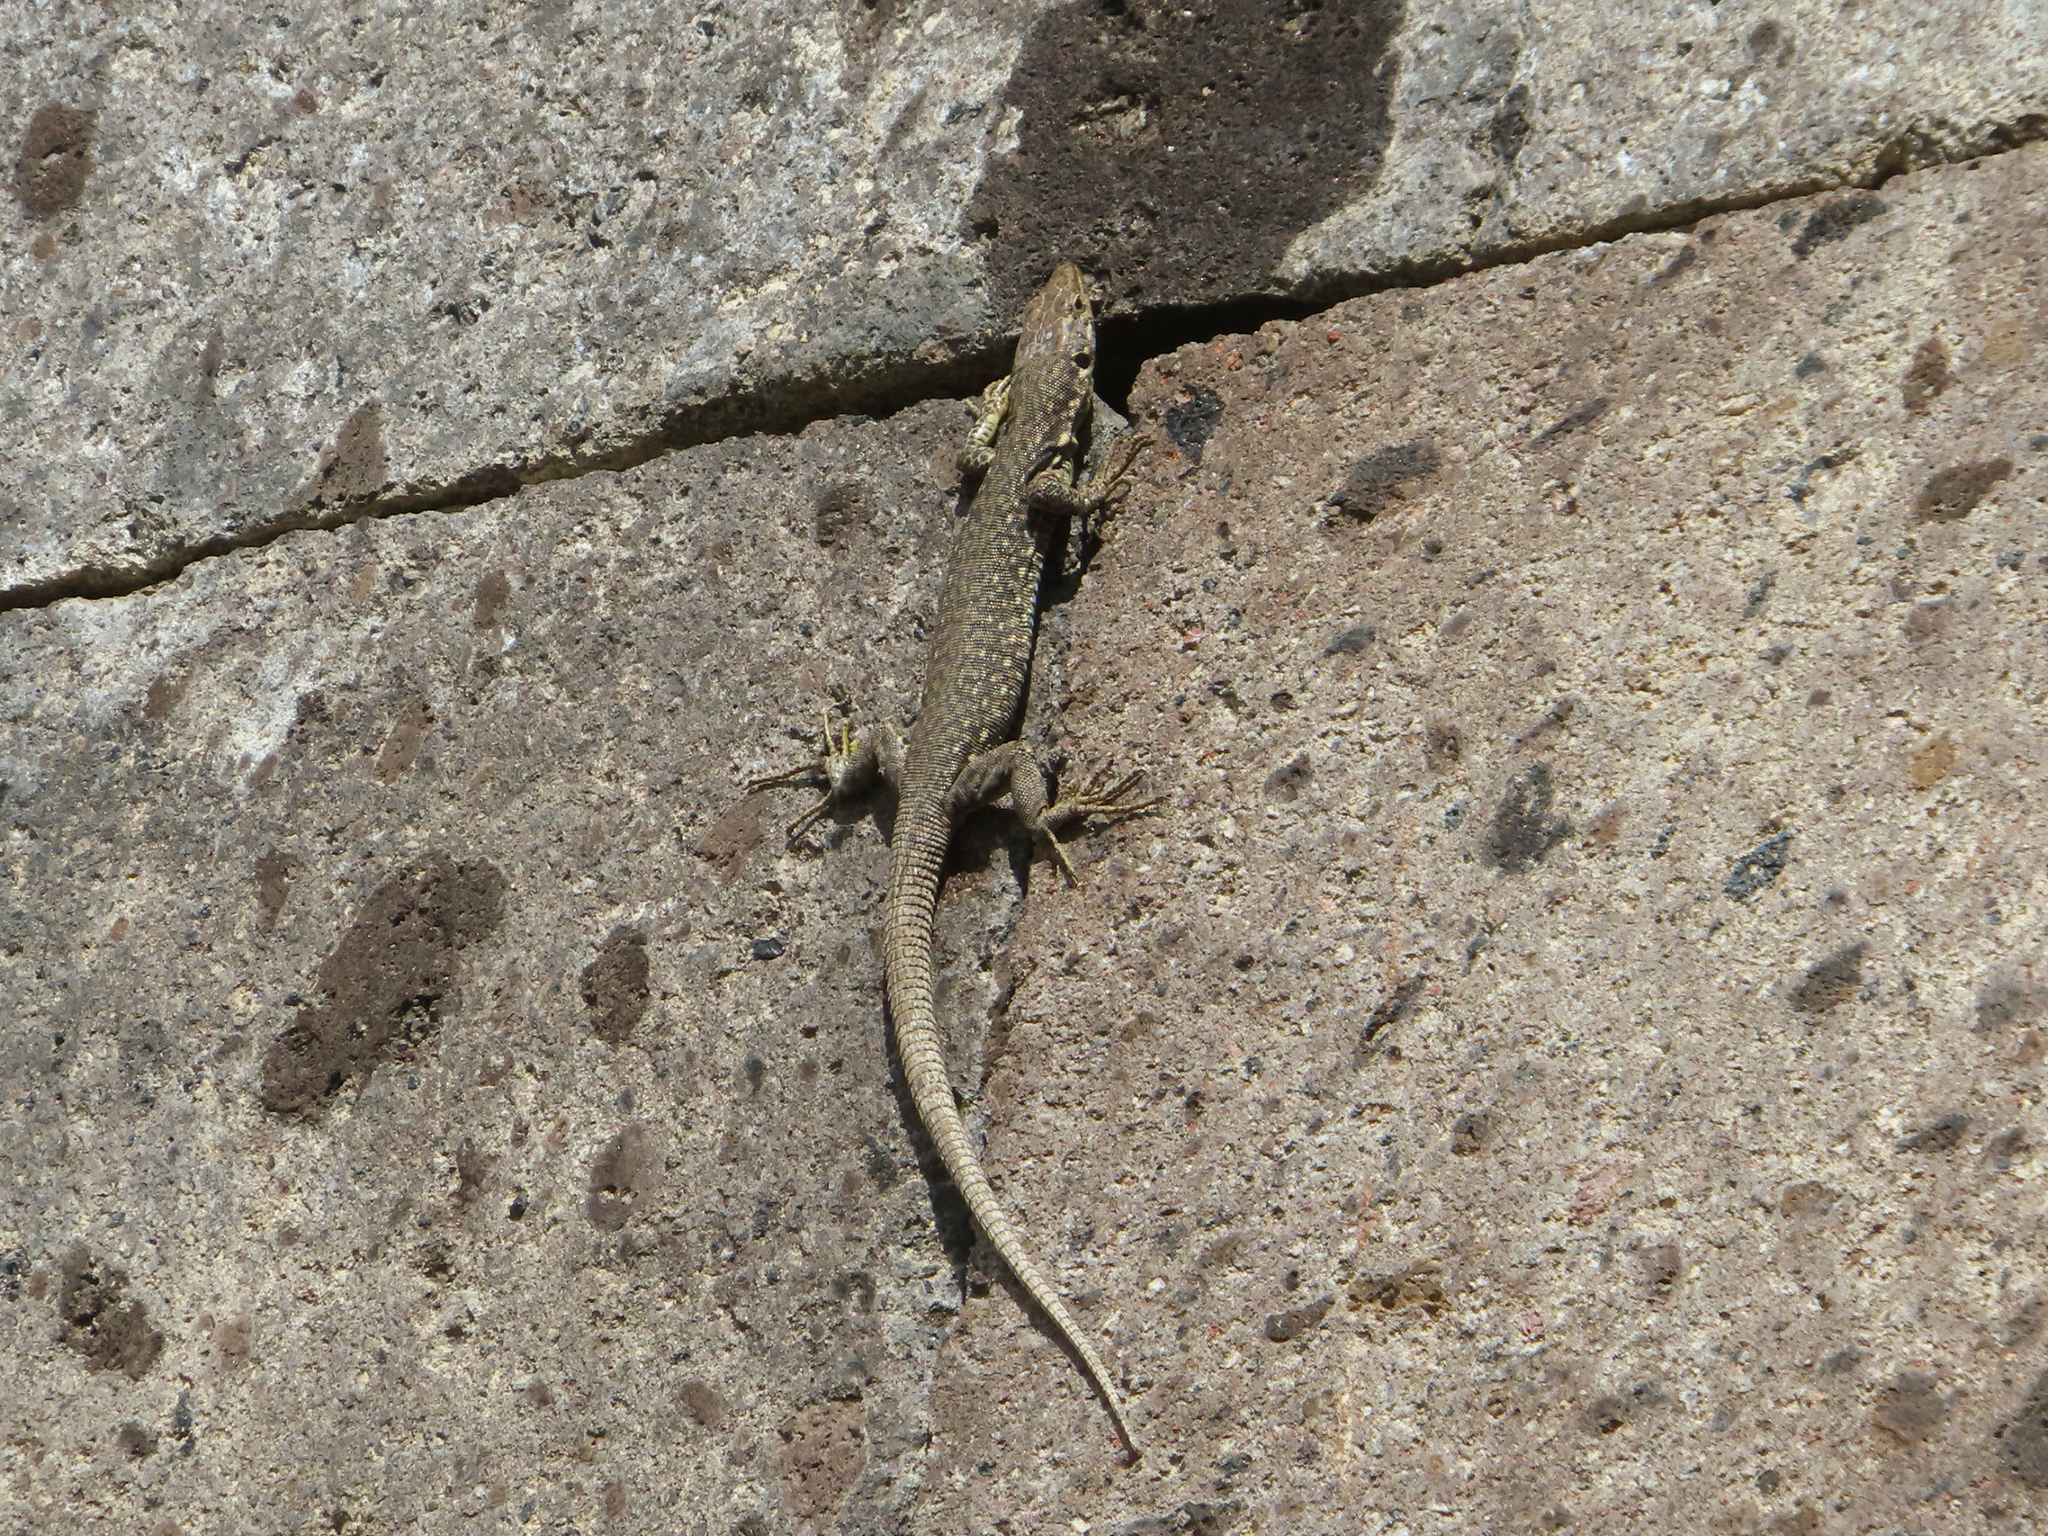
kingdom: Animalia
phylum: Chordata
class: Squamata
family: Lacertidae
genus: Darevskia
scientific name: Darevskia
